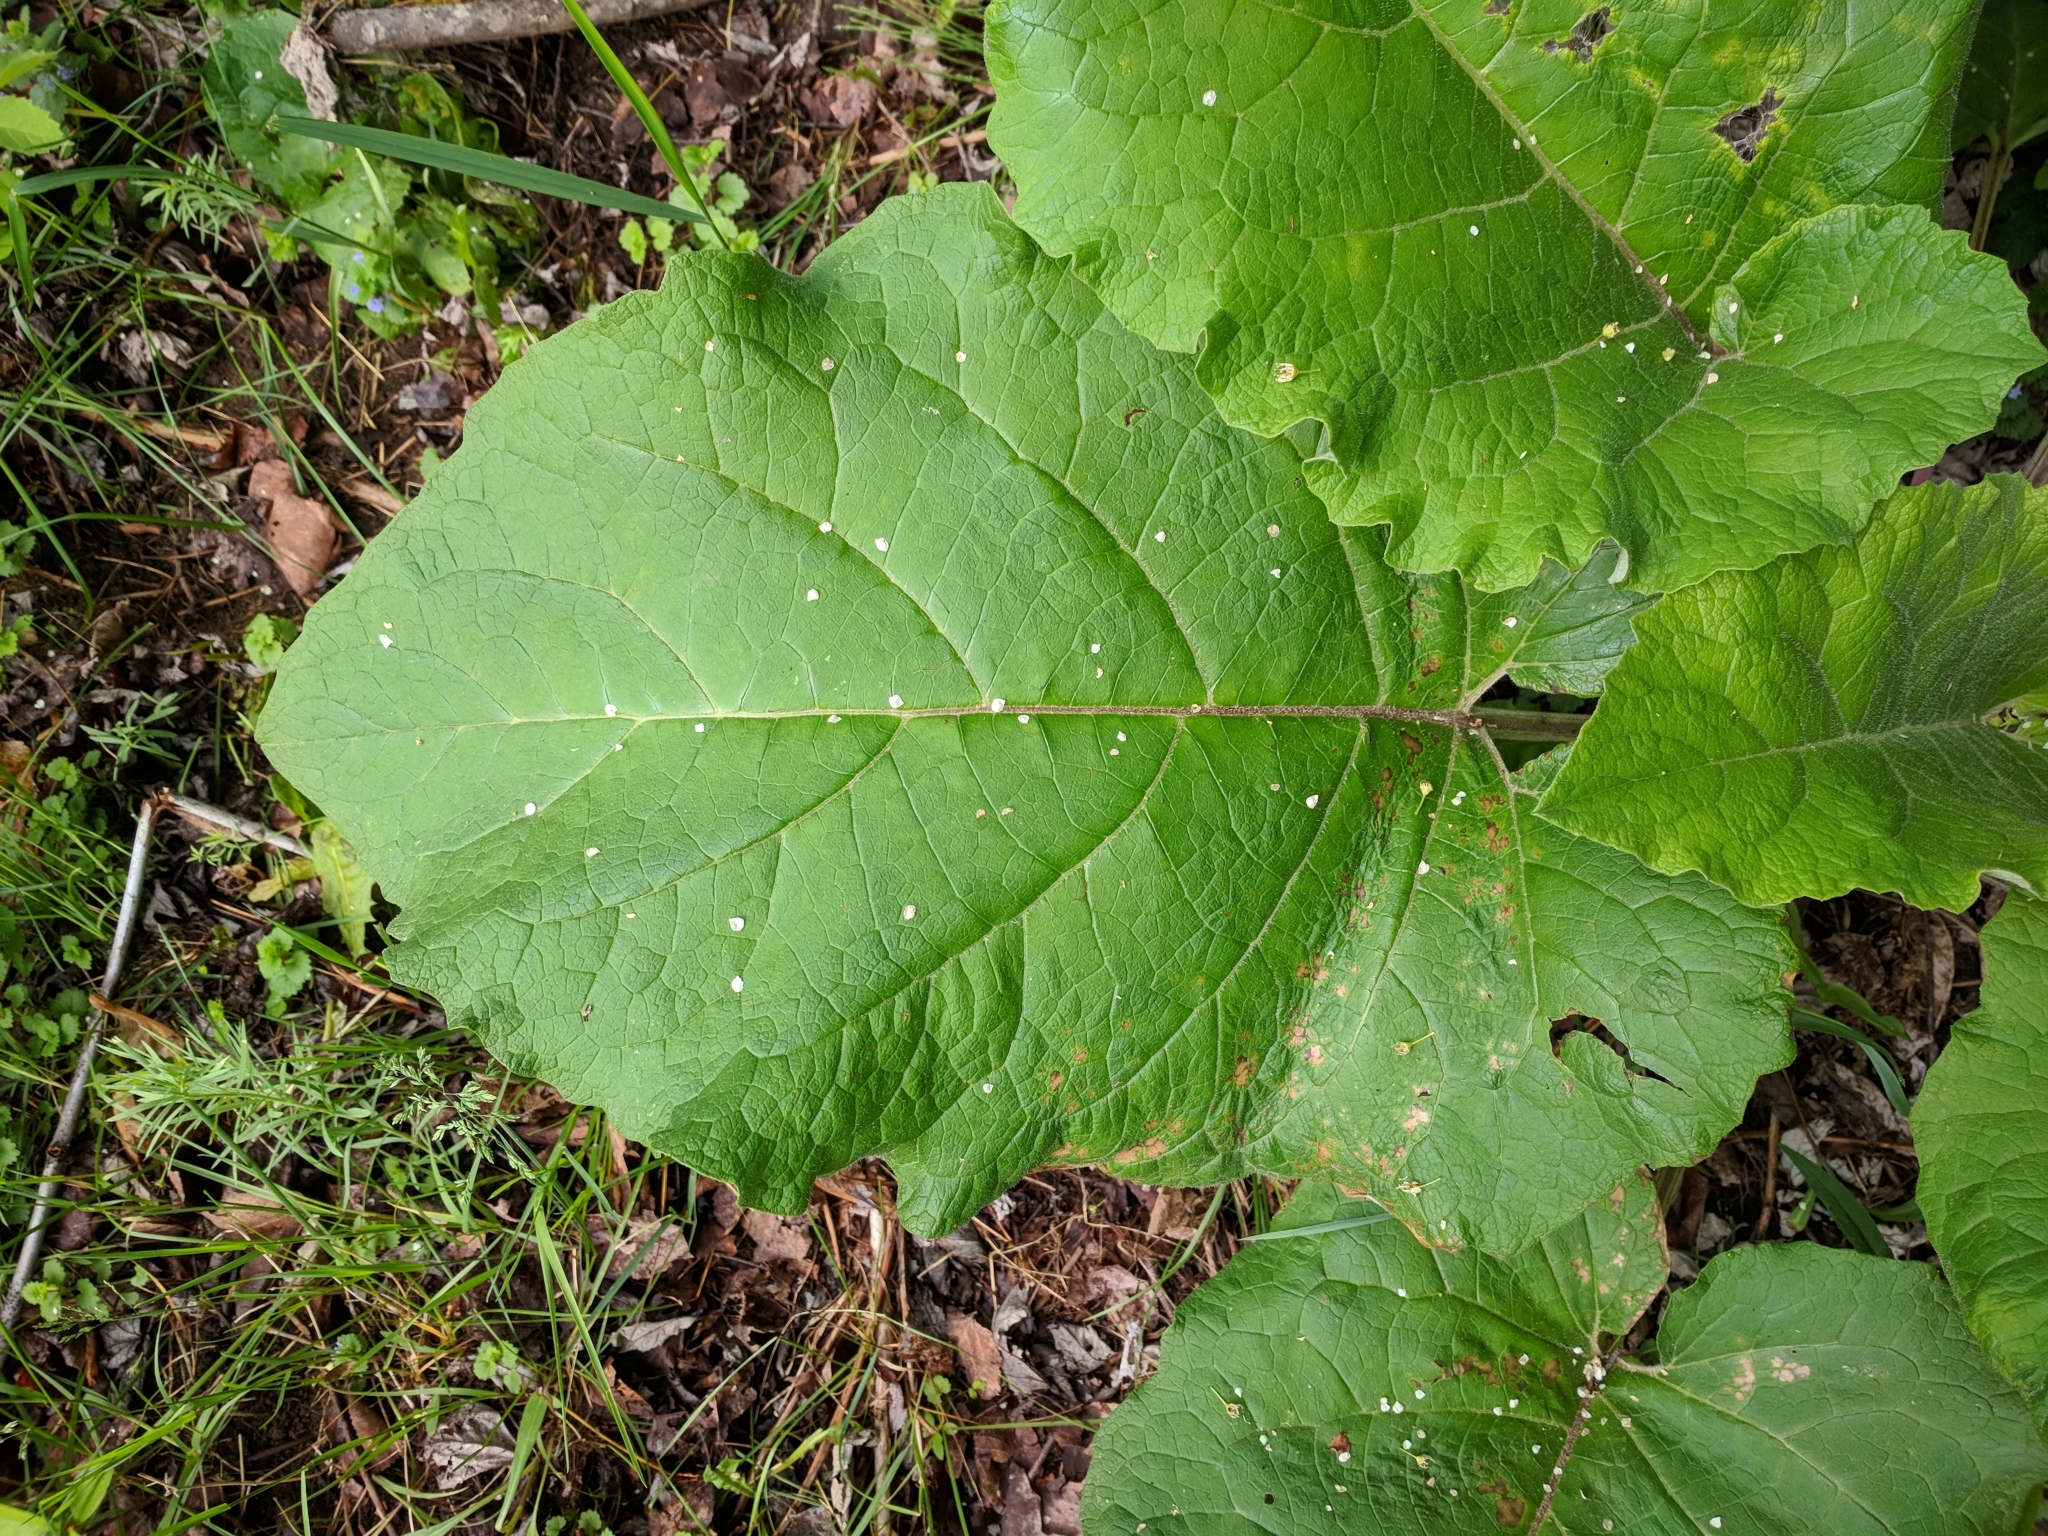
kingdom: Plantae
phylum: Tracheophyta
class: Magnoliopsida
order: Asterales
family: Asteraceae
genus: Arctium
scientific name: Arctium
